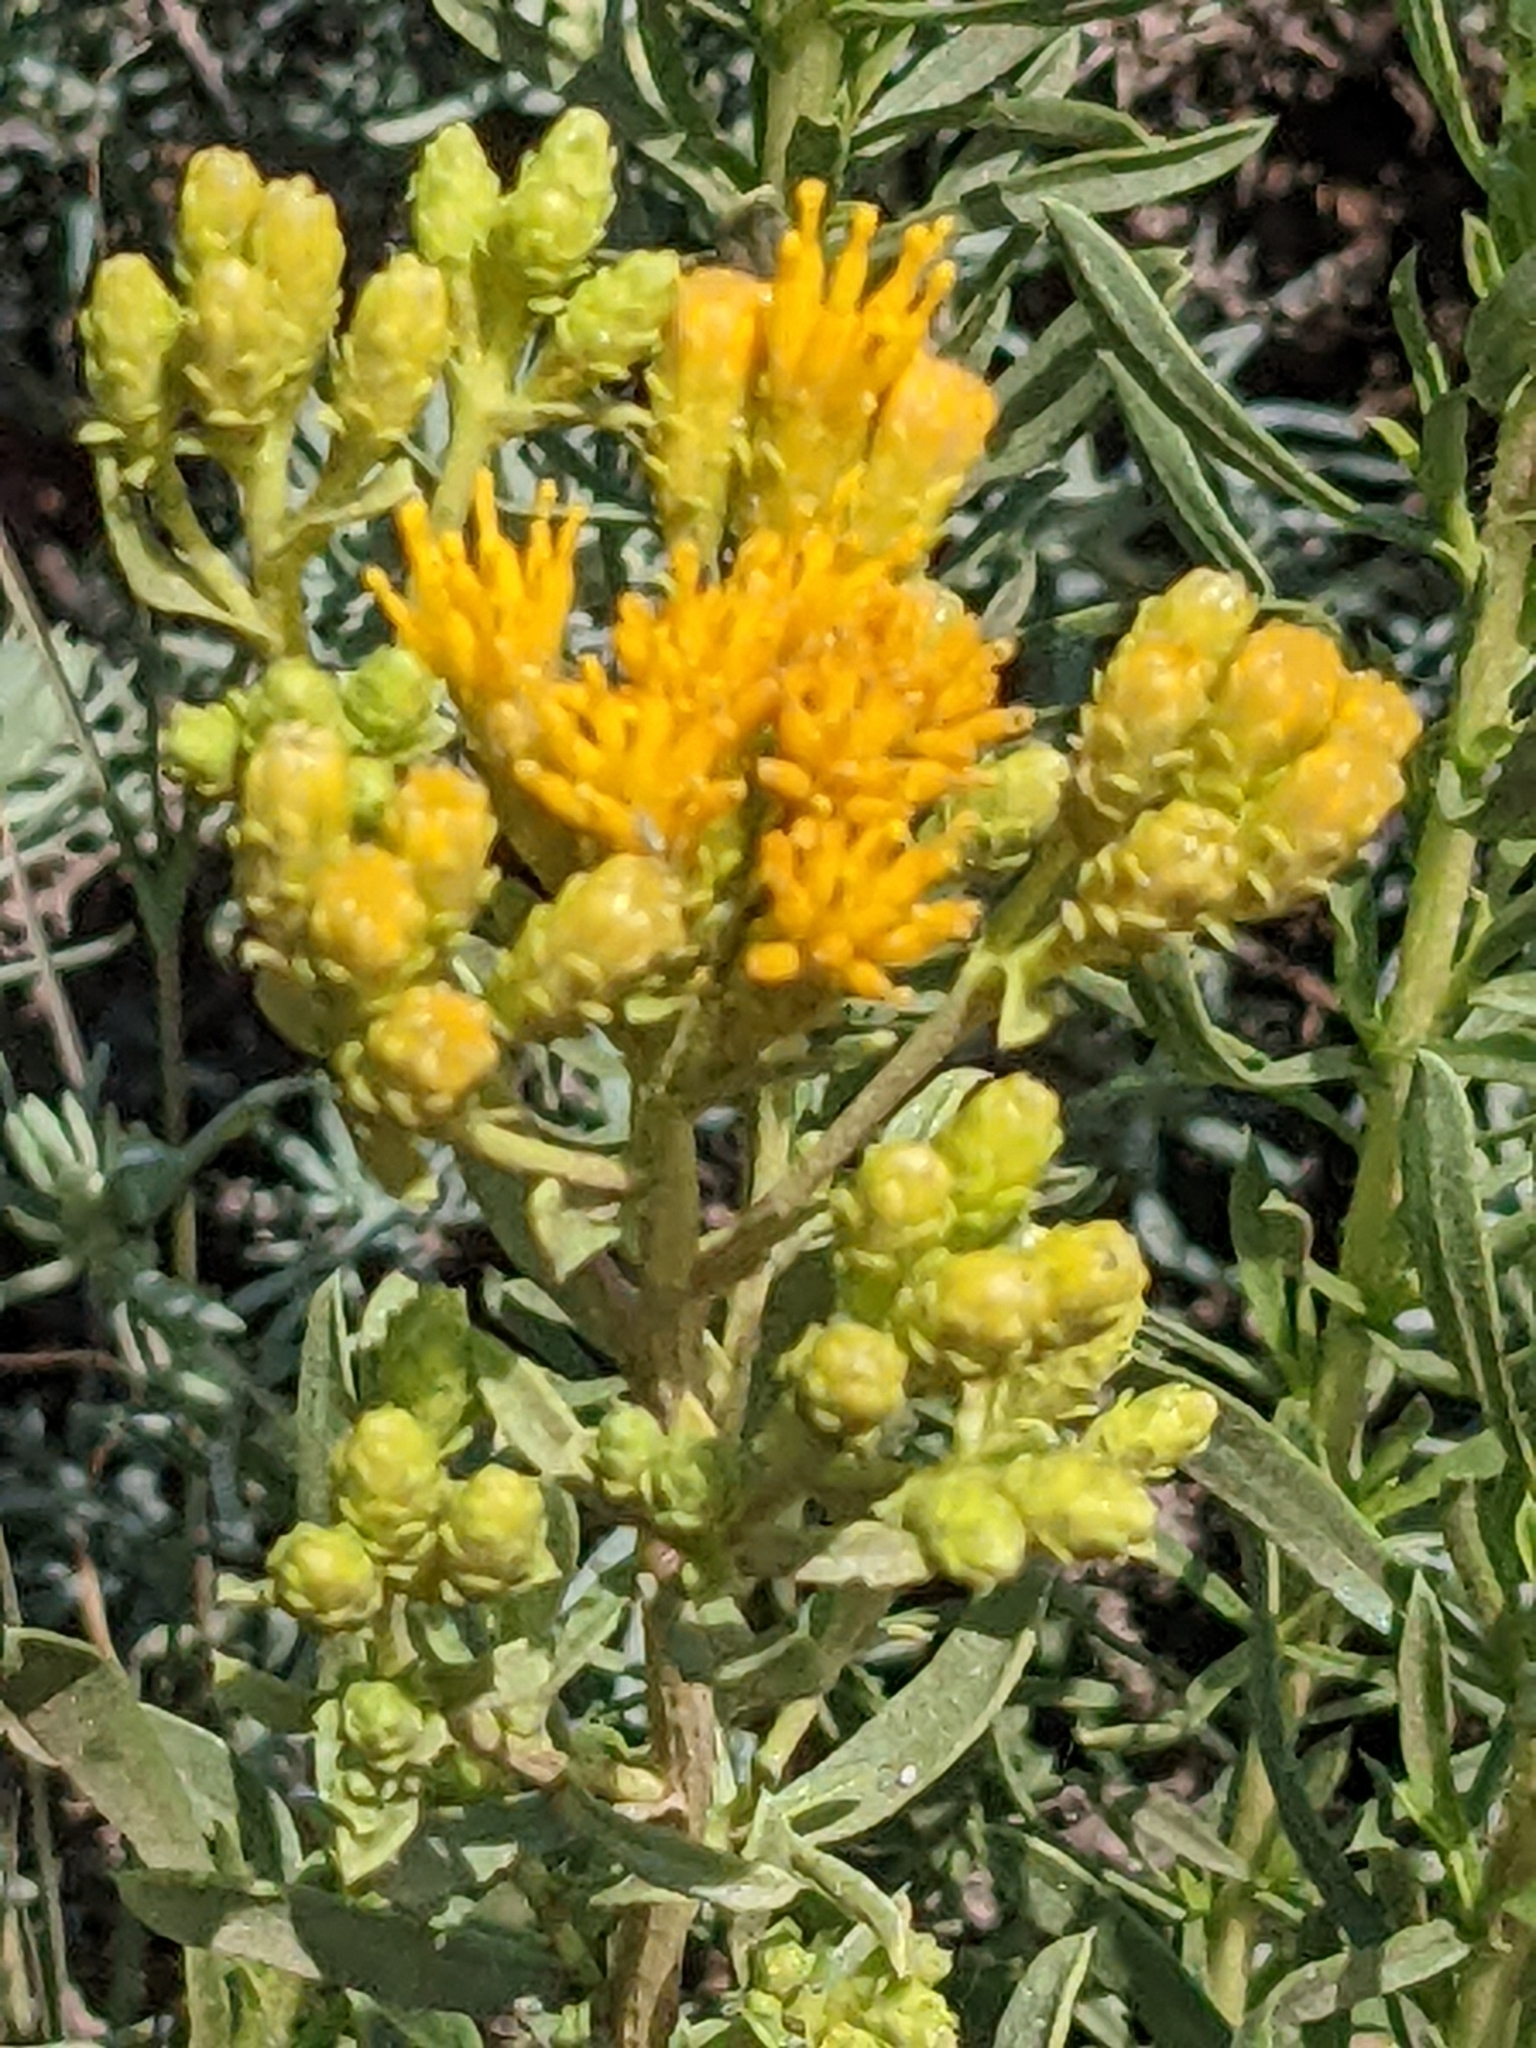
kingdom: Plantae
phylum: Tracheophyta
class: Magnoliopsida
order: Asterales
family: Asteraceae
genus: Isocoma
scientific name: Isocoma menziesii
